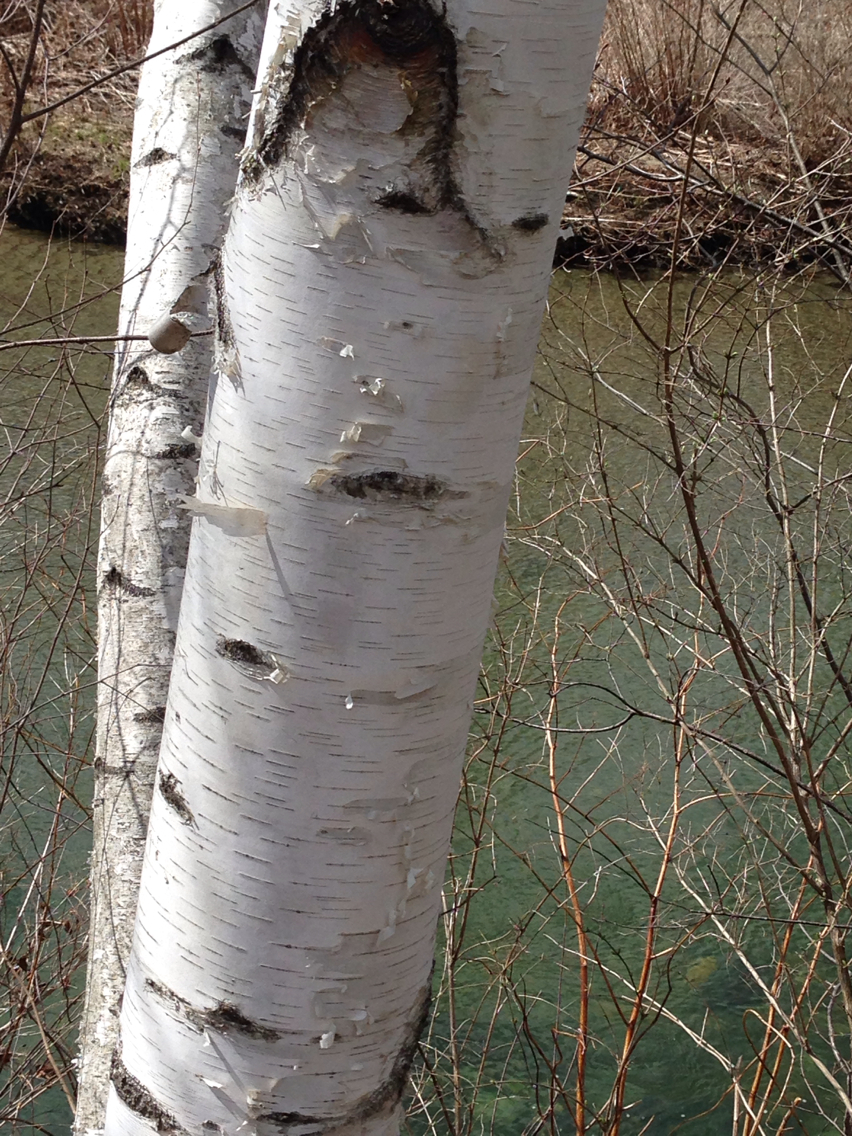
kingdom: Plantae
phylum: Tracheophyta
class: Magnoliopsida
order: Fagales
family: Betulaceae
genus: Betula
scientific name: Betula papyrifera
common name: Paper birch
